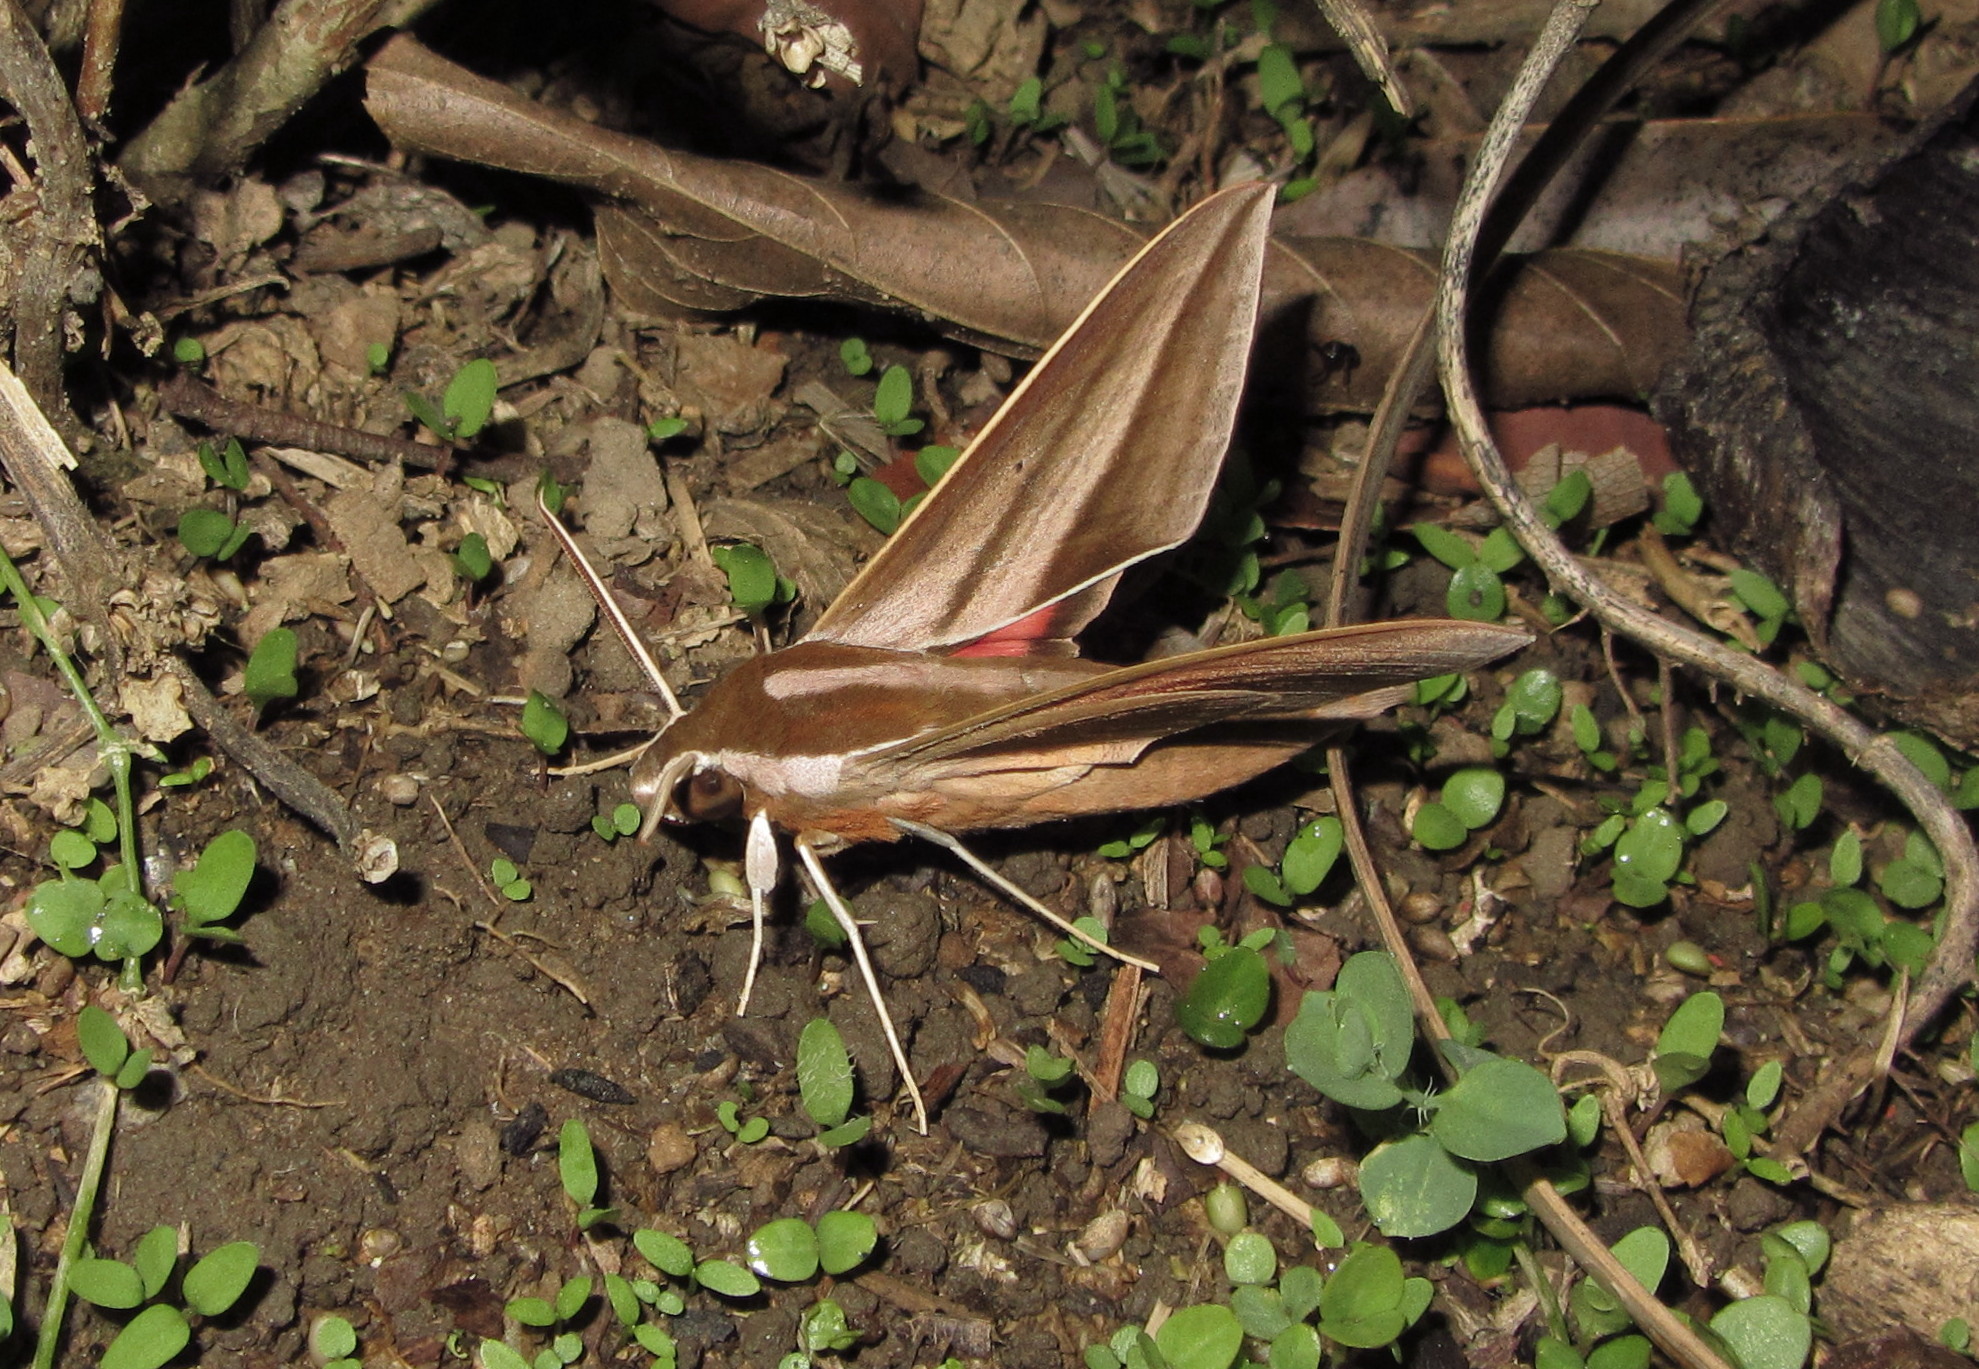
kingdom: Animalia
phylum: Arthropoda
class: Insecta
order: Lepidoptera
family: Sphingidae
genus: Theretra
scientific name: Theretra suffusa
